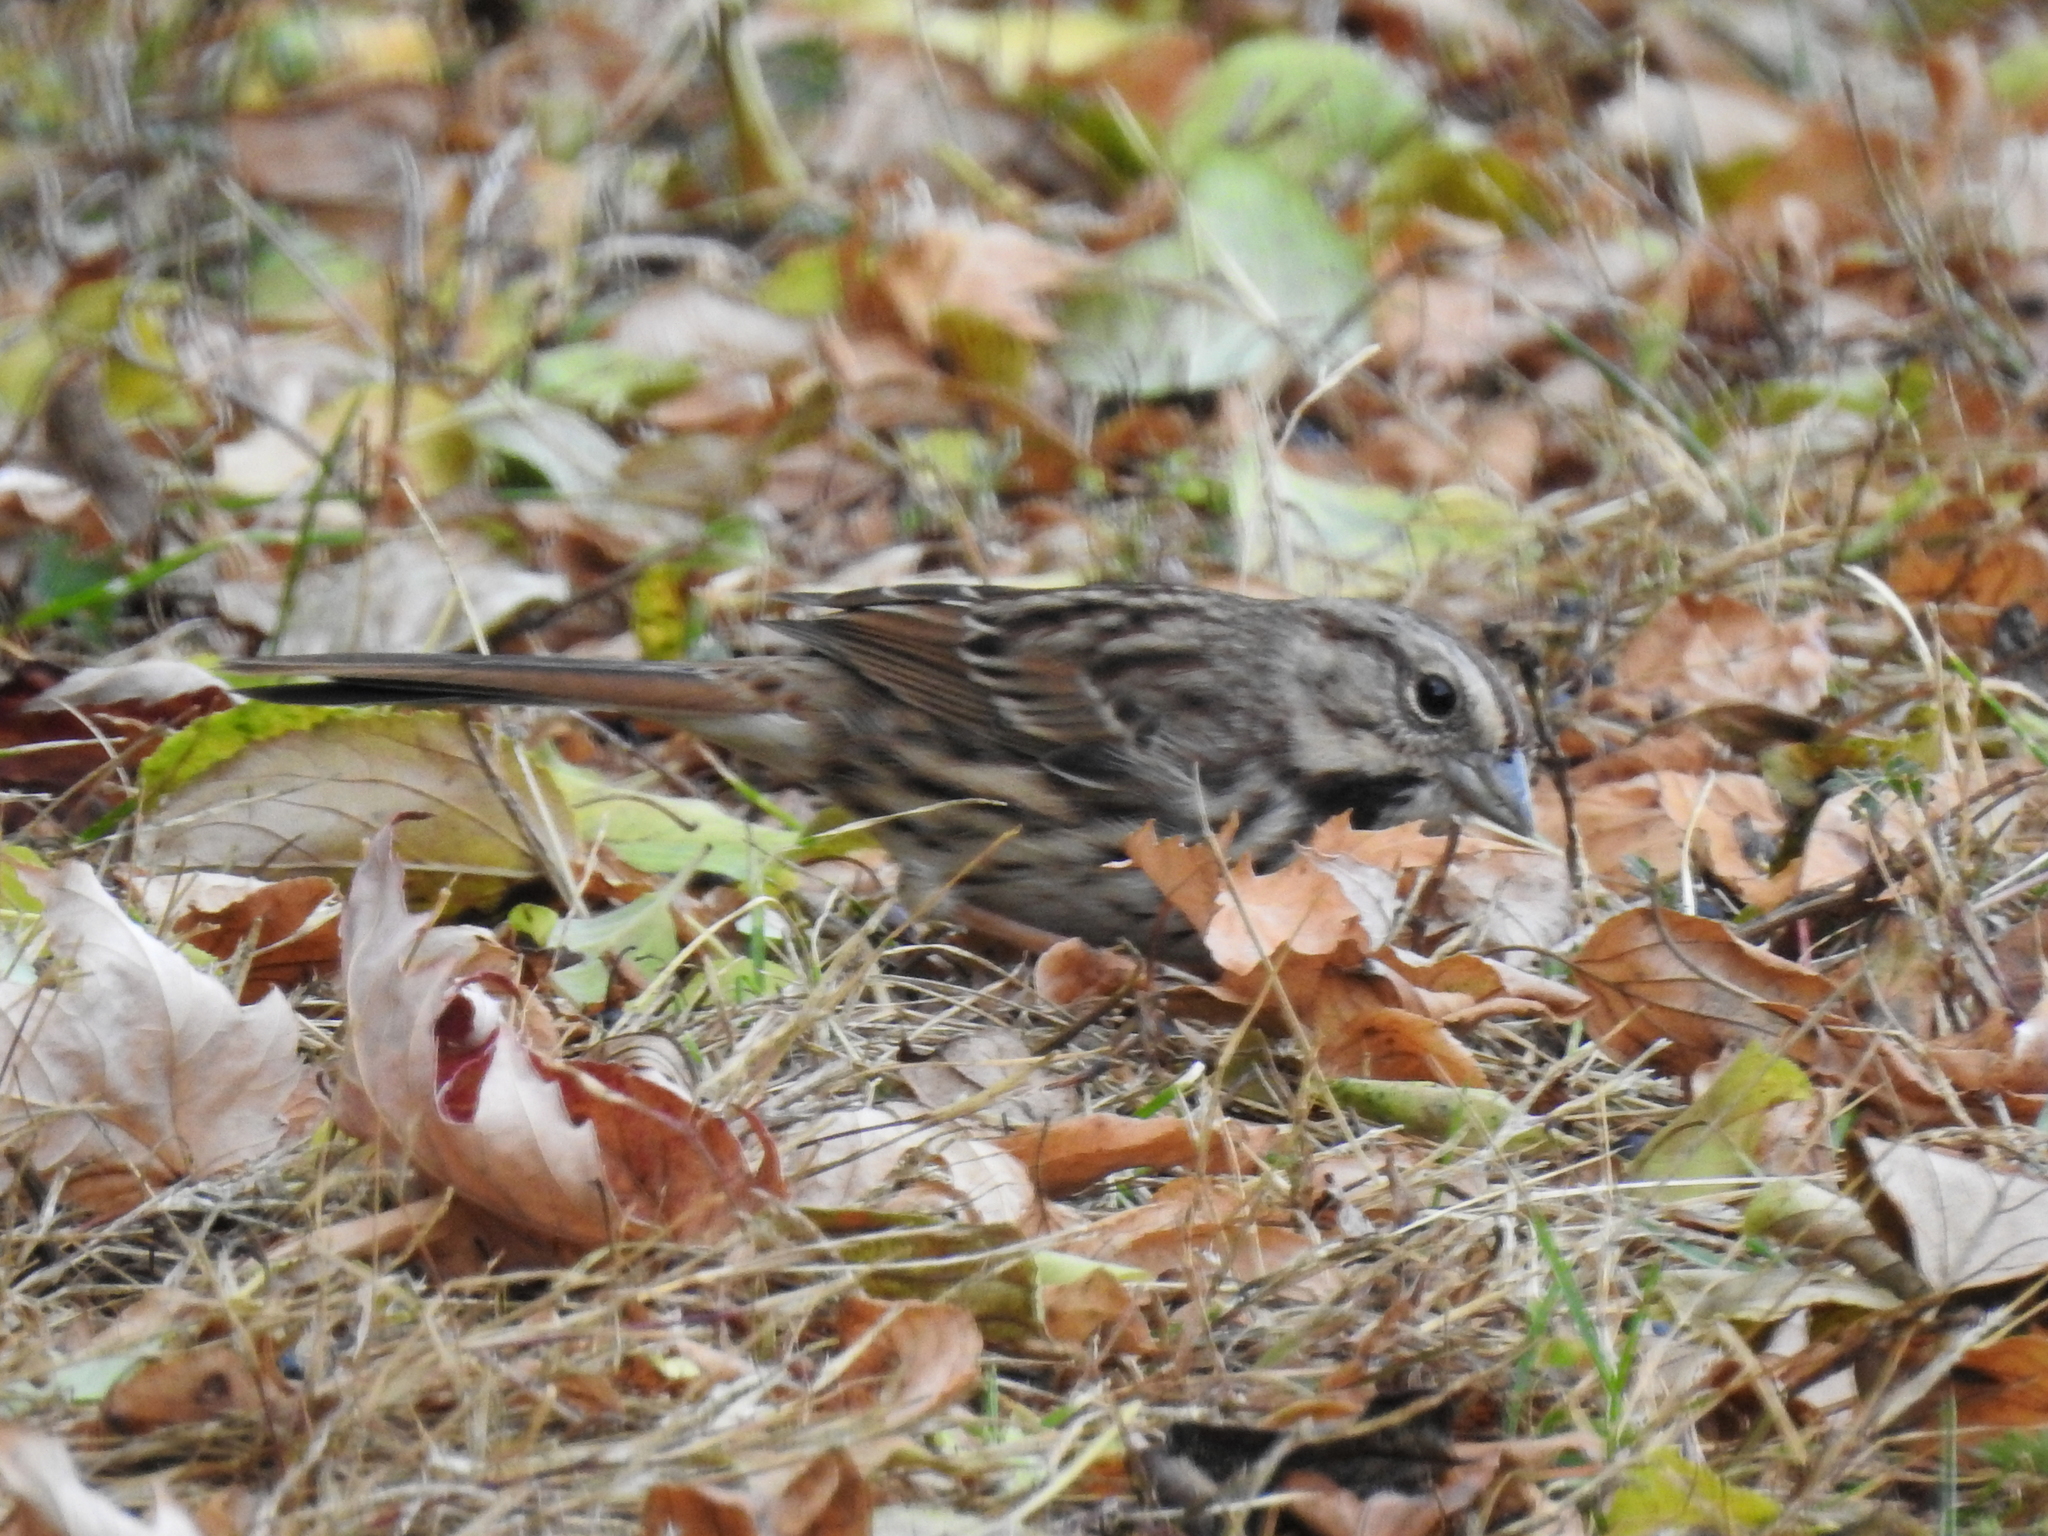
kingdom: Animalia
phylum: Chordata
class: Aves
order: Passeriformes
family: Passerellidae
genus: Melospiza
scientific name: Melospiza melodia
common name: Song sparrow
